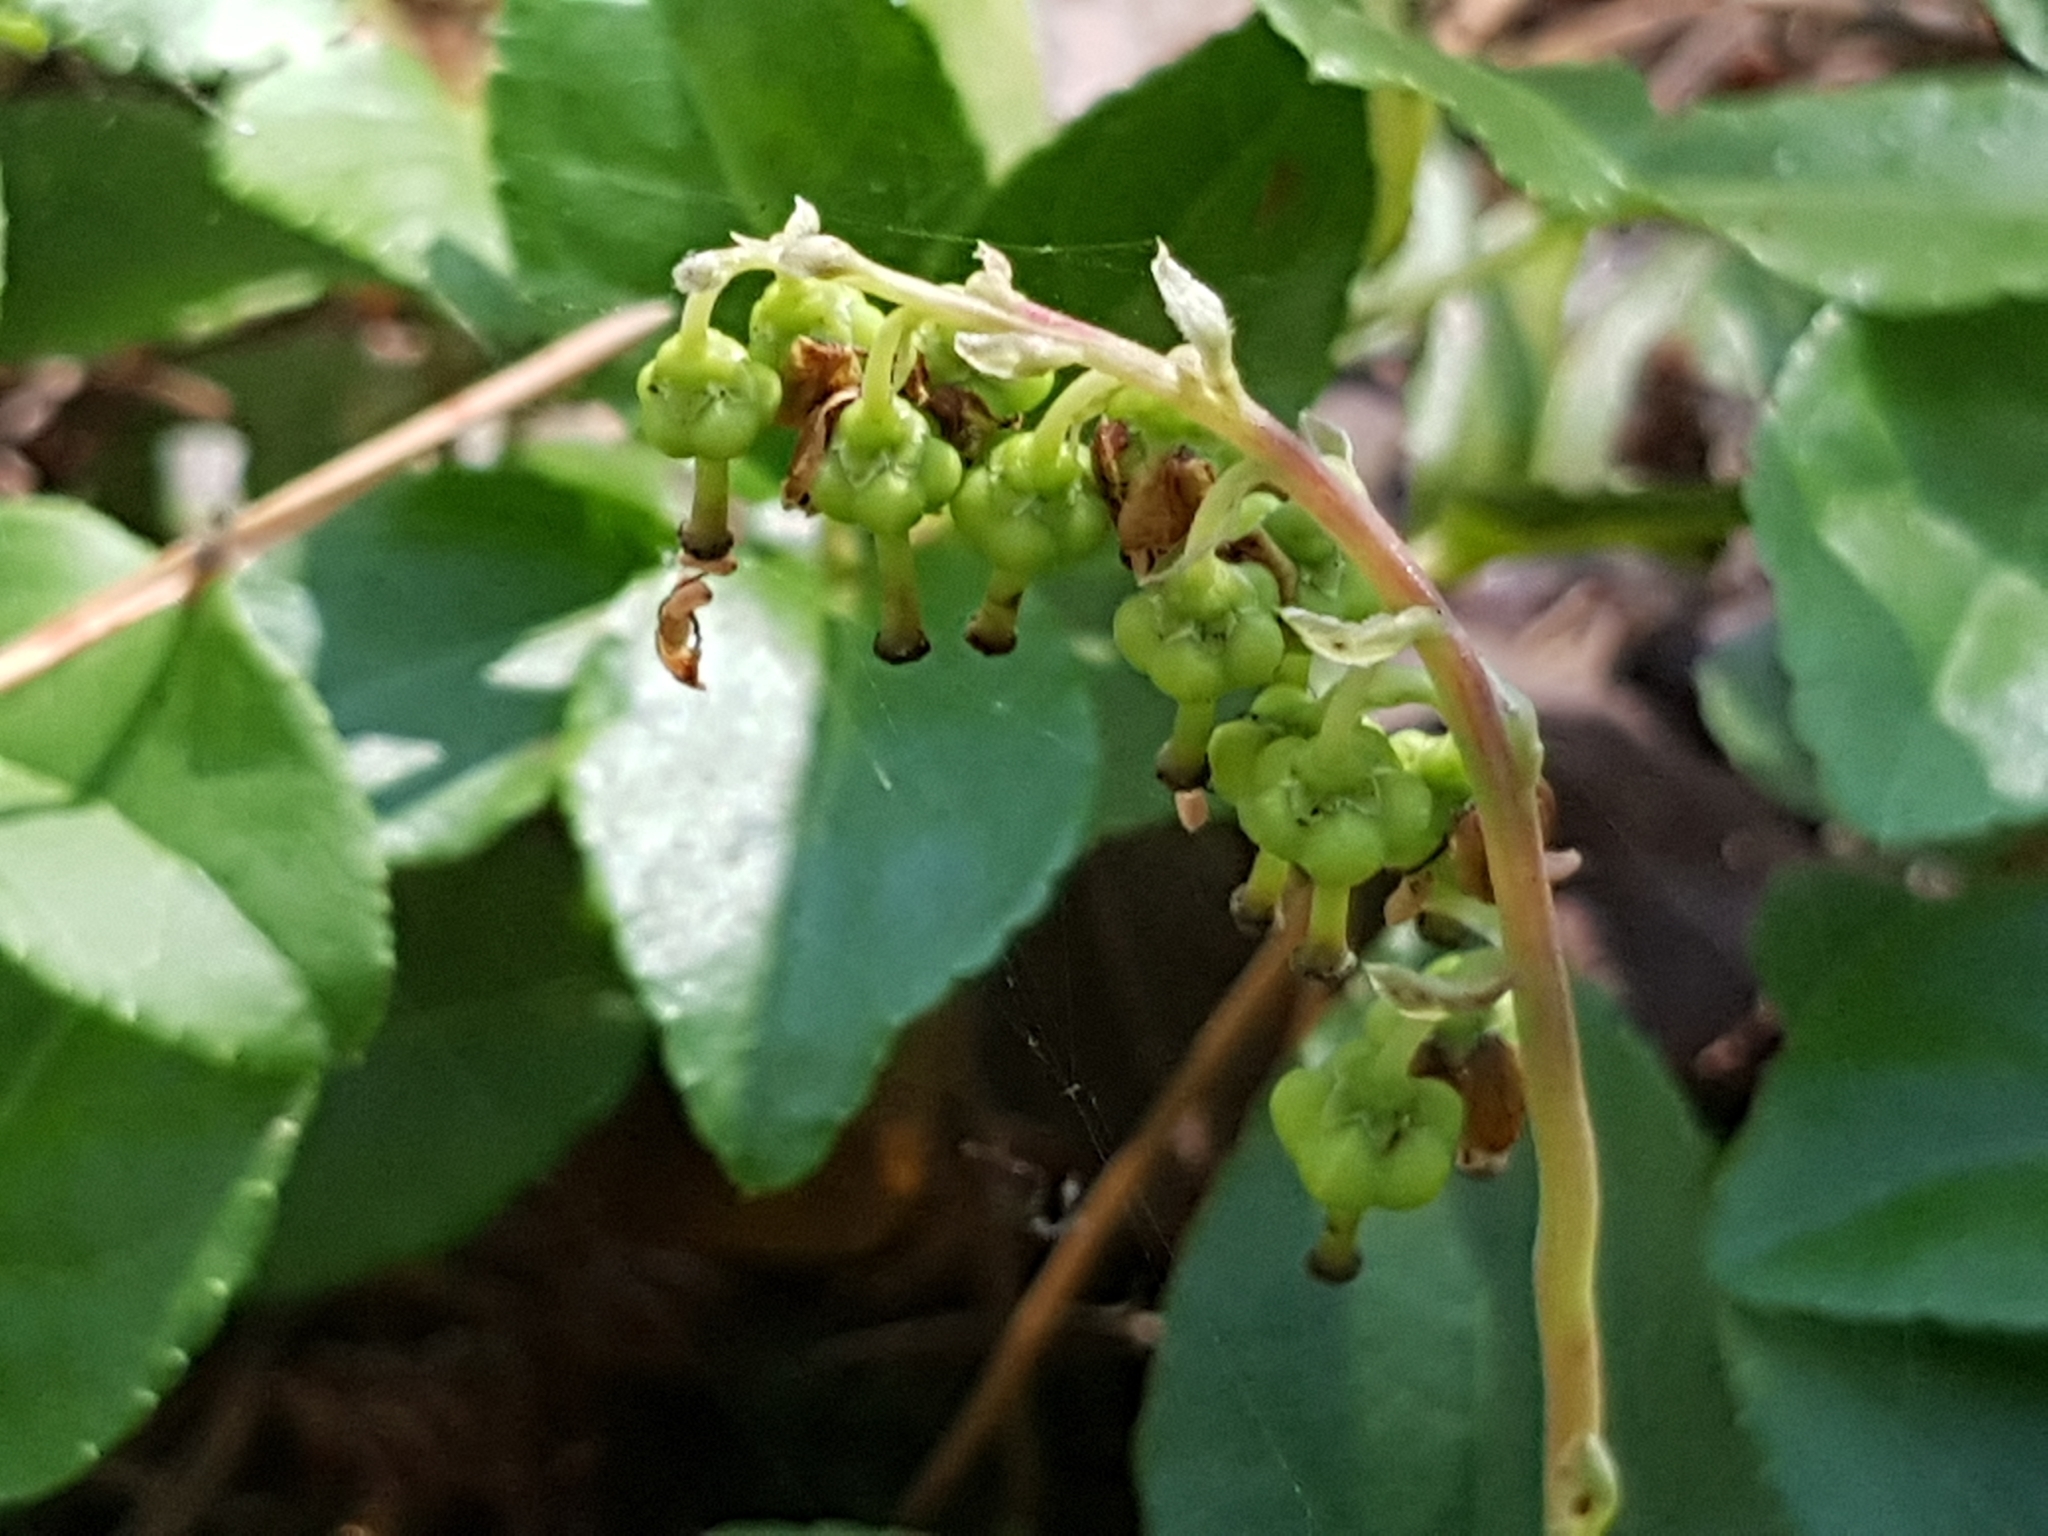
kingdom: Plantae
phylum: Tracheophyta
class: Magnoliopsida
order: Ericales
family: Ericaceae
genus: Orthilia
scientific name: Orthilia secunda
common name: One-sided orthilia
